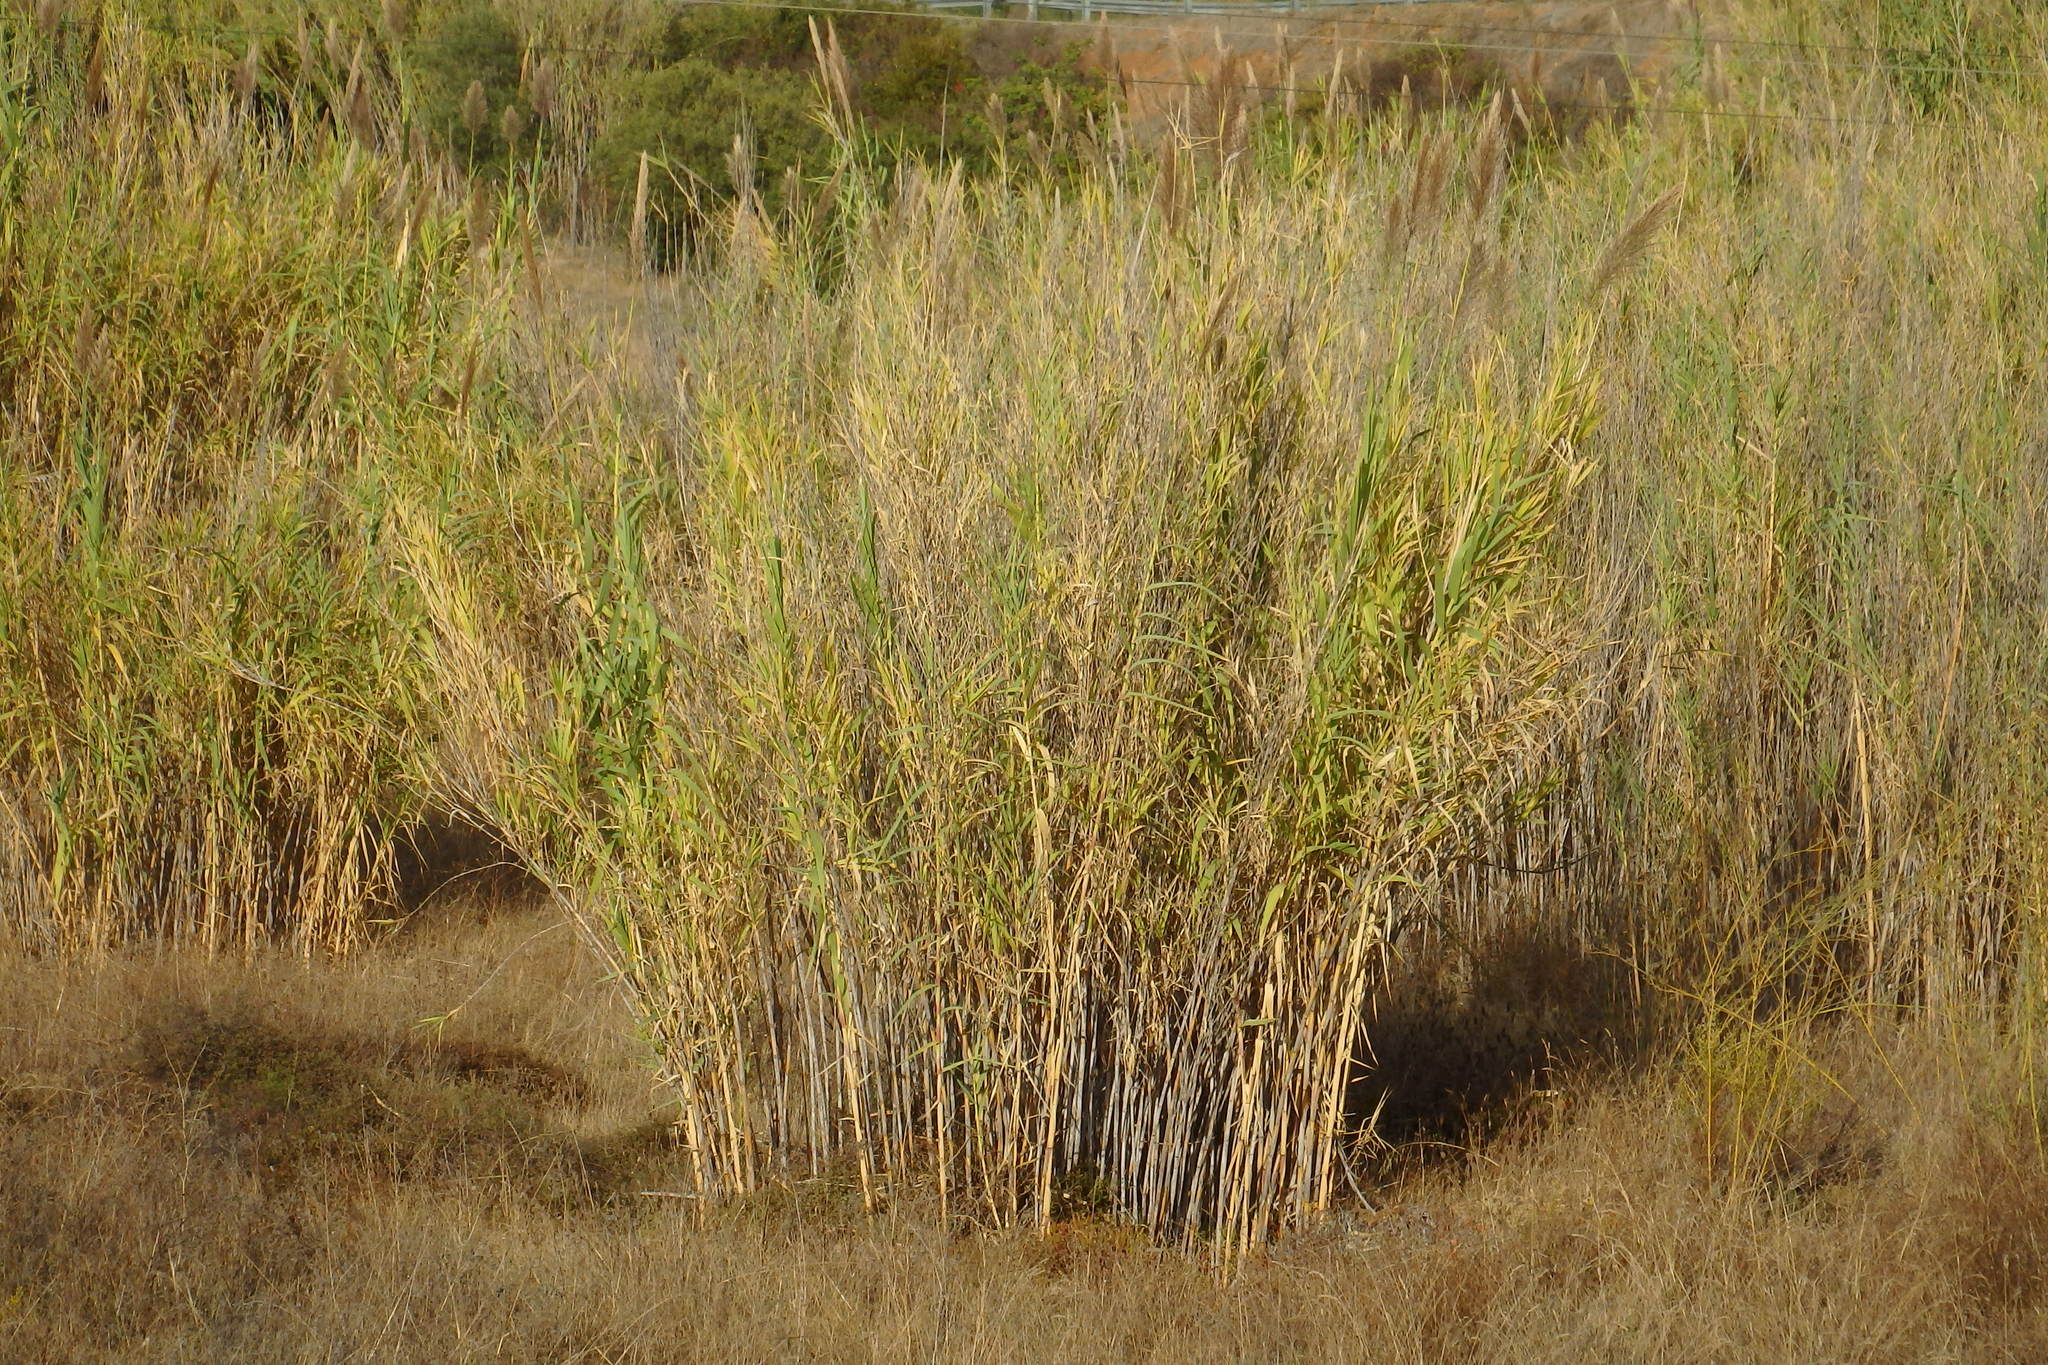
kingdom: Plantae
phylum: Tracheophyta
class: Liliopsida
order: Poales
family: Poaceae
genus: Arundo
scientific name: Arundo donax
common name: Giant reed
